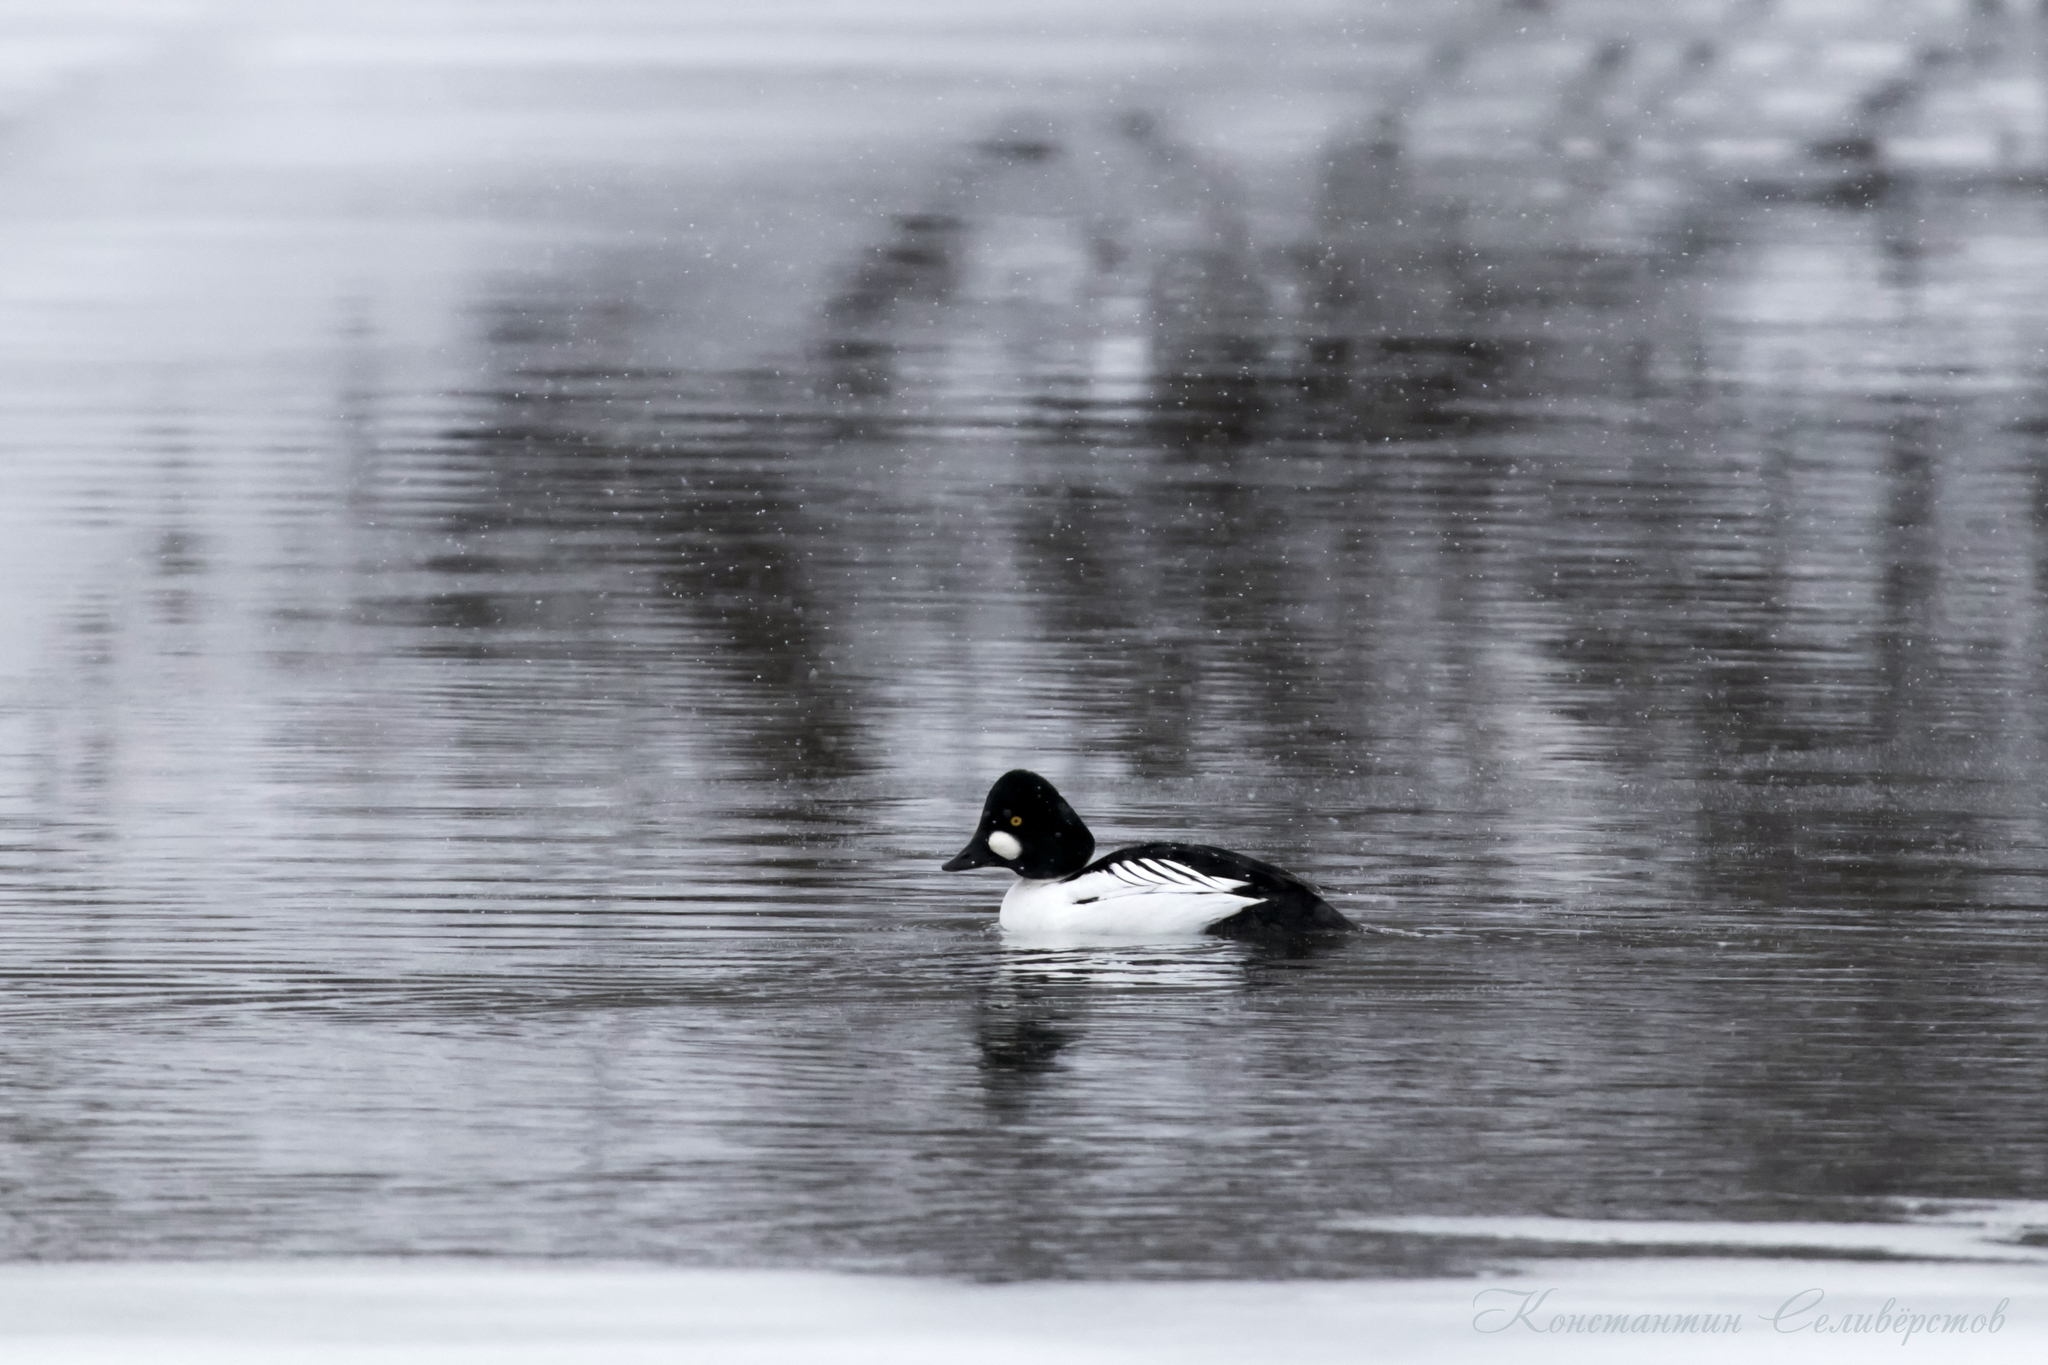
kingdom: Animalia
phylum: Chordata
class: Aves
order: Anseriformes
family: Anatidae
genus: Bucephala
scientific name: Bucephala clangula
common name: Common goldeneye
